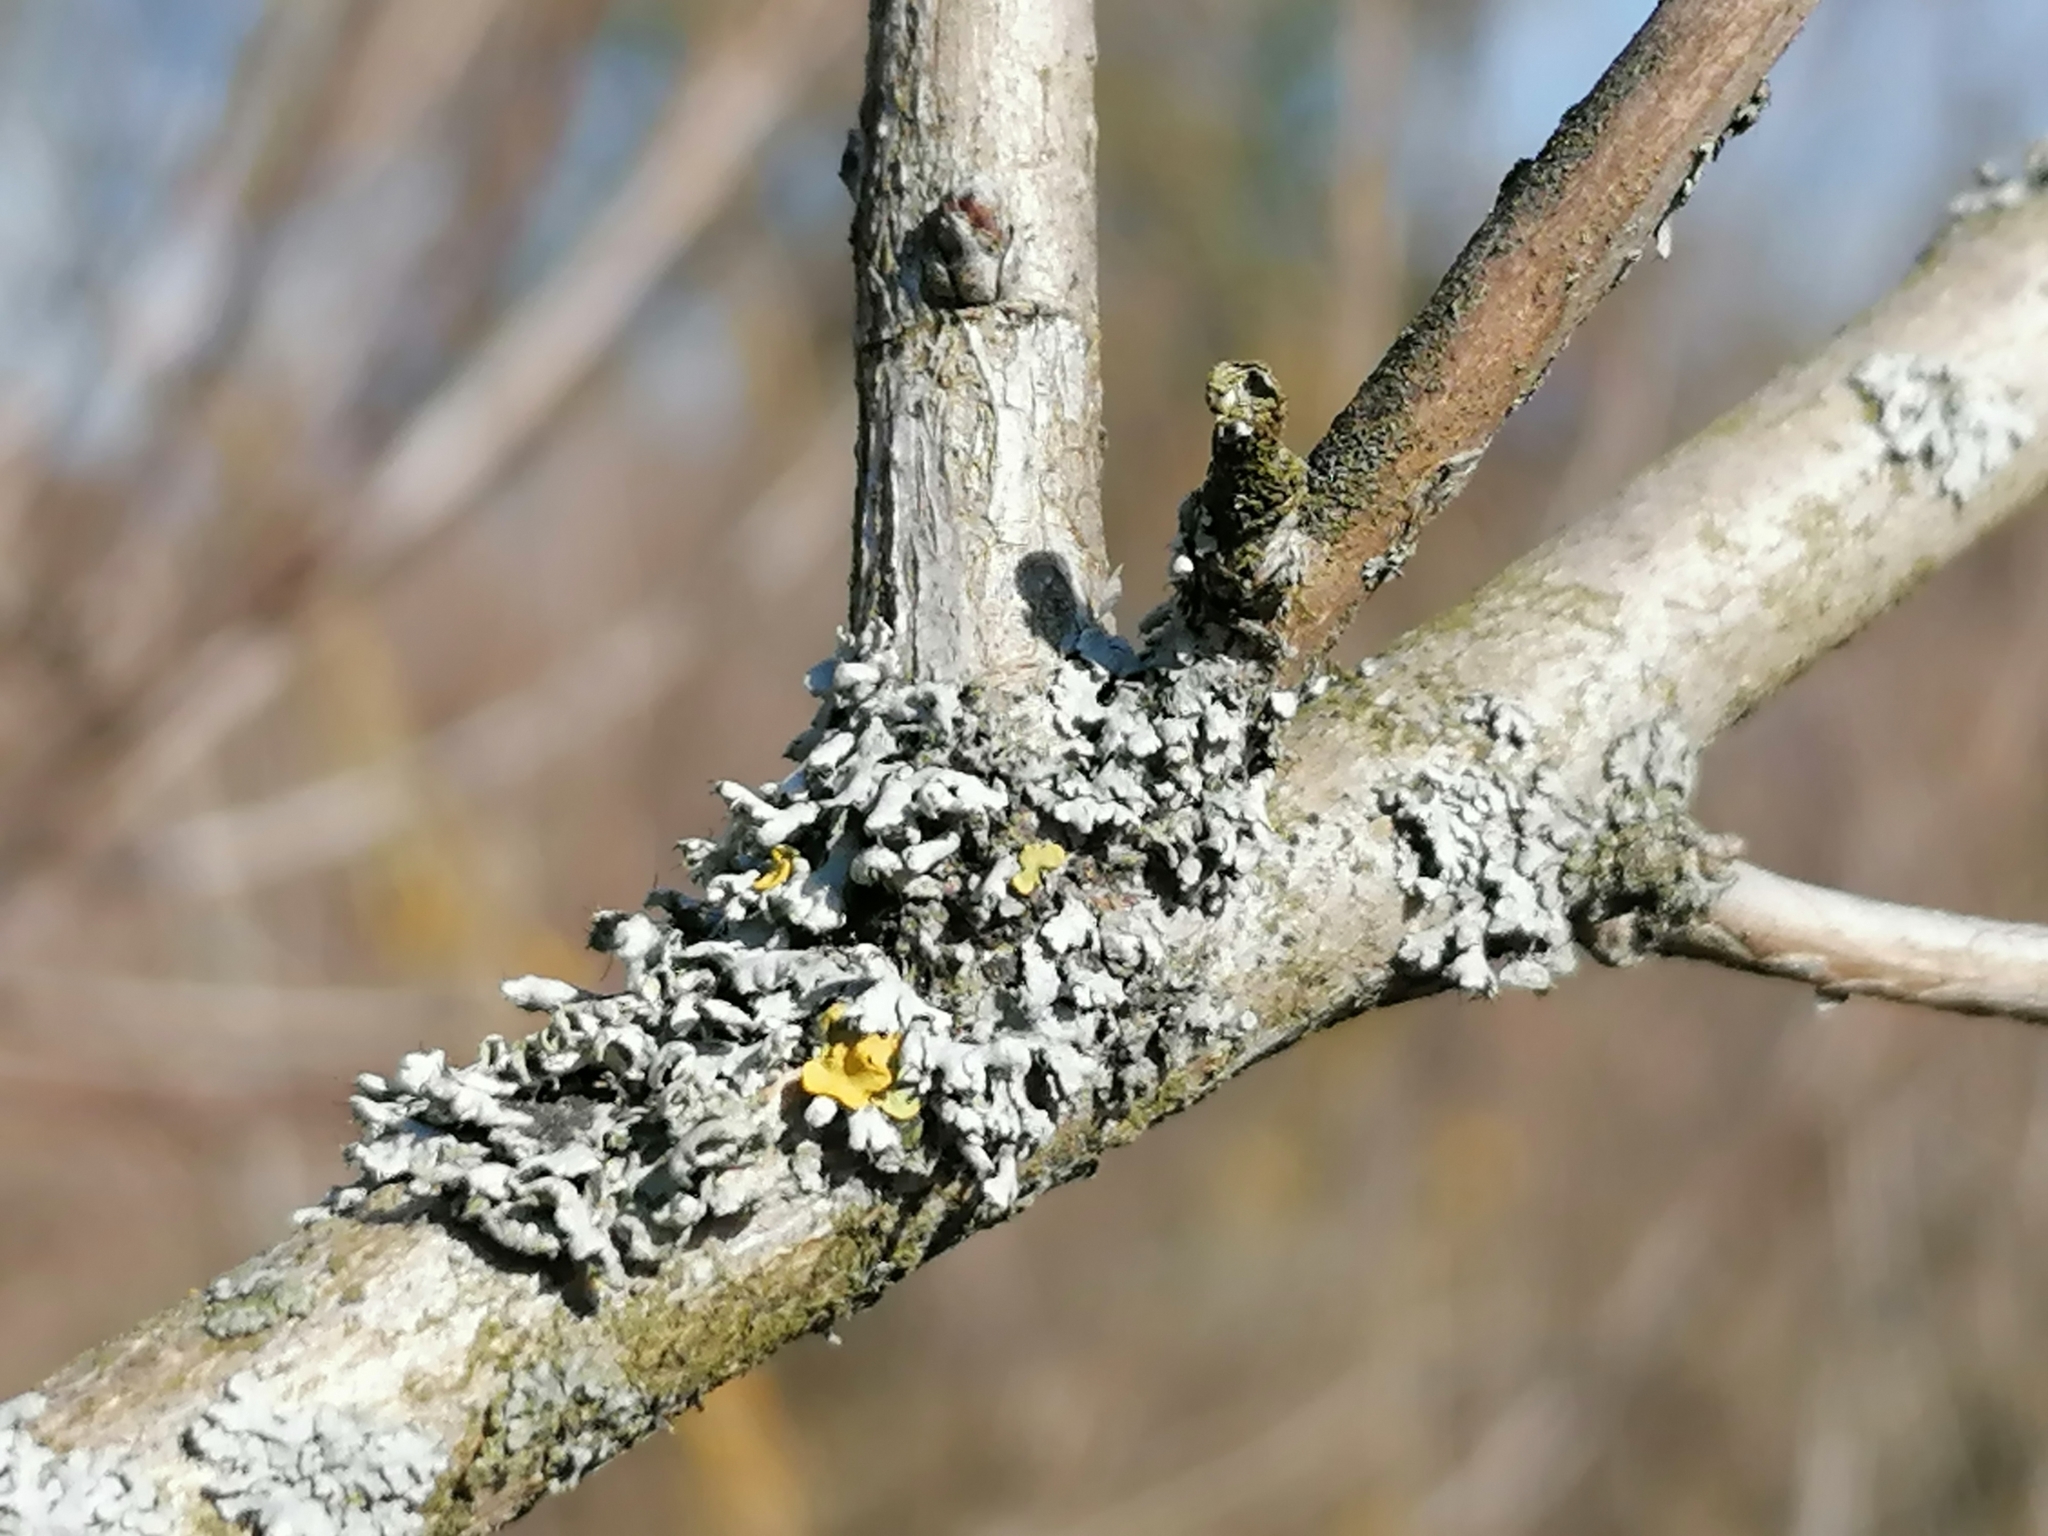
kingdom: Fungi
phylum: Ascomycota
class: Lecanoromycetes
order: Caliciales
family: Physciaceae
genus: Physcia
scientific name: Physcia adscendens
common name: Hooded rosette lichen
